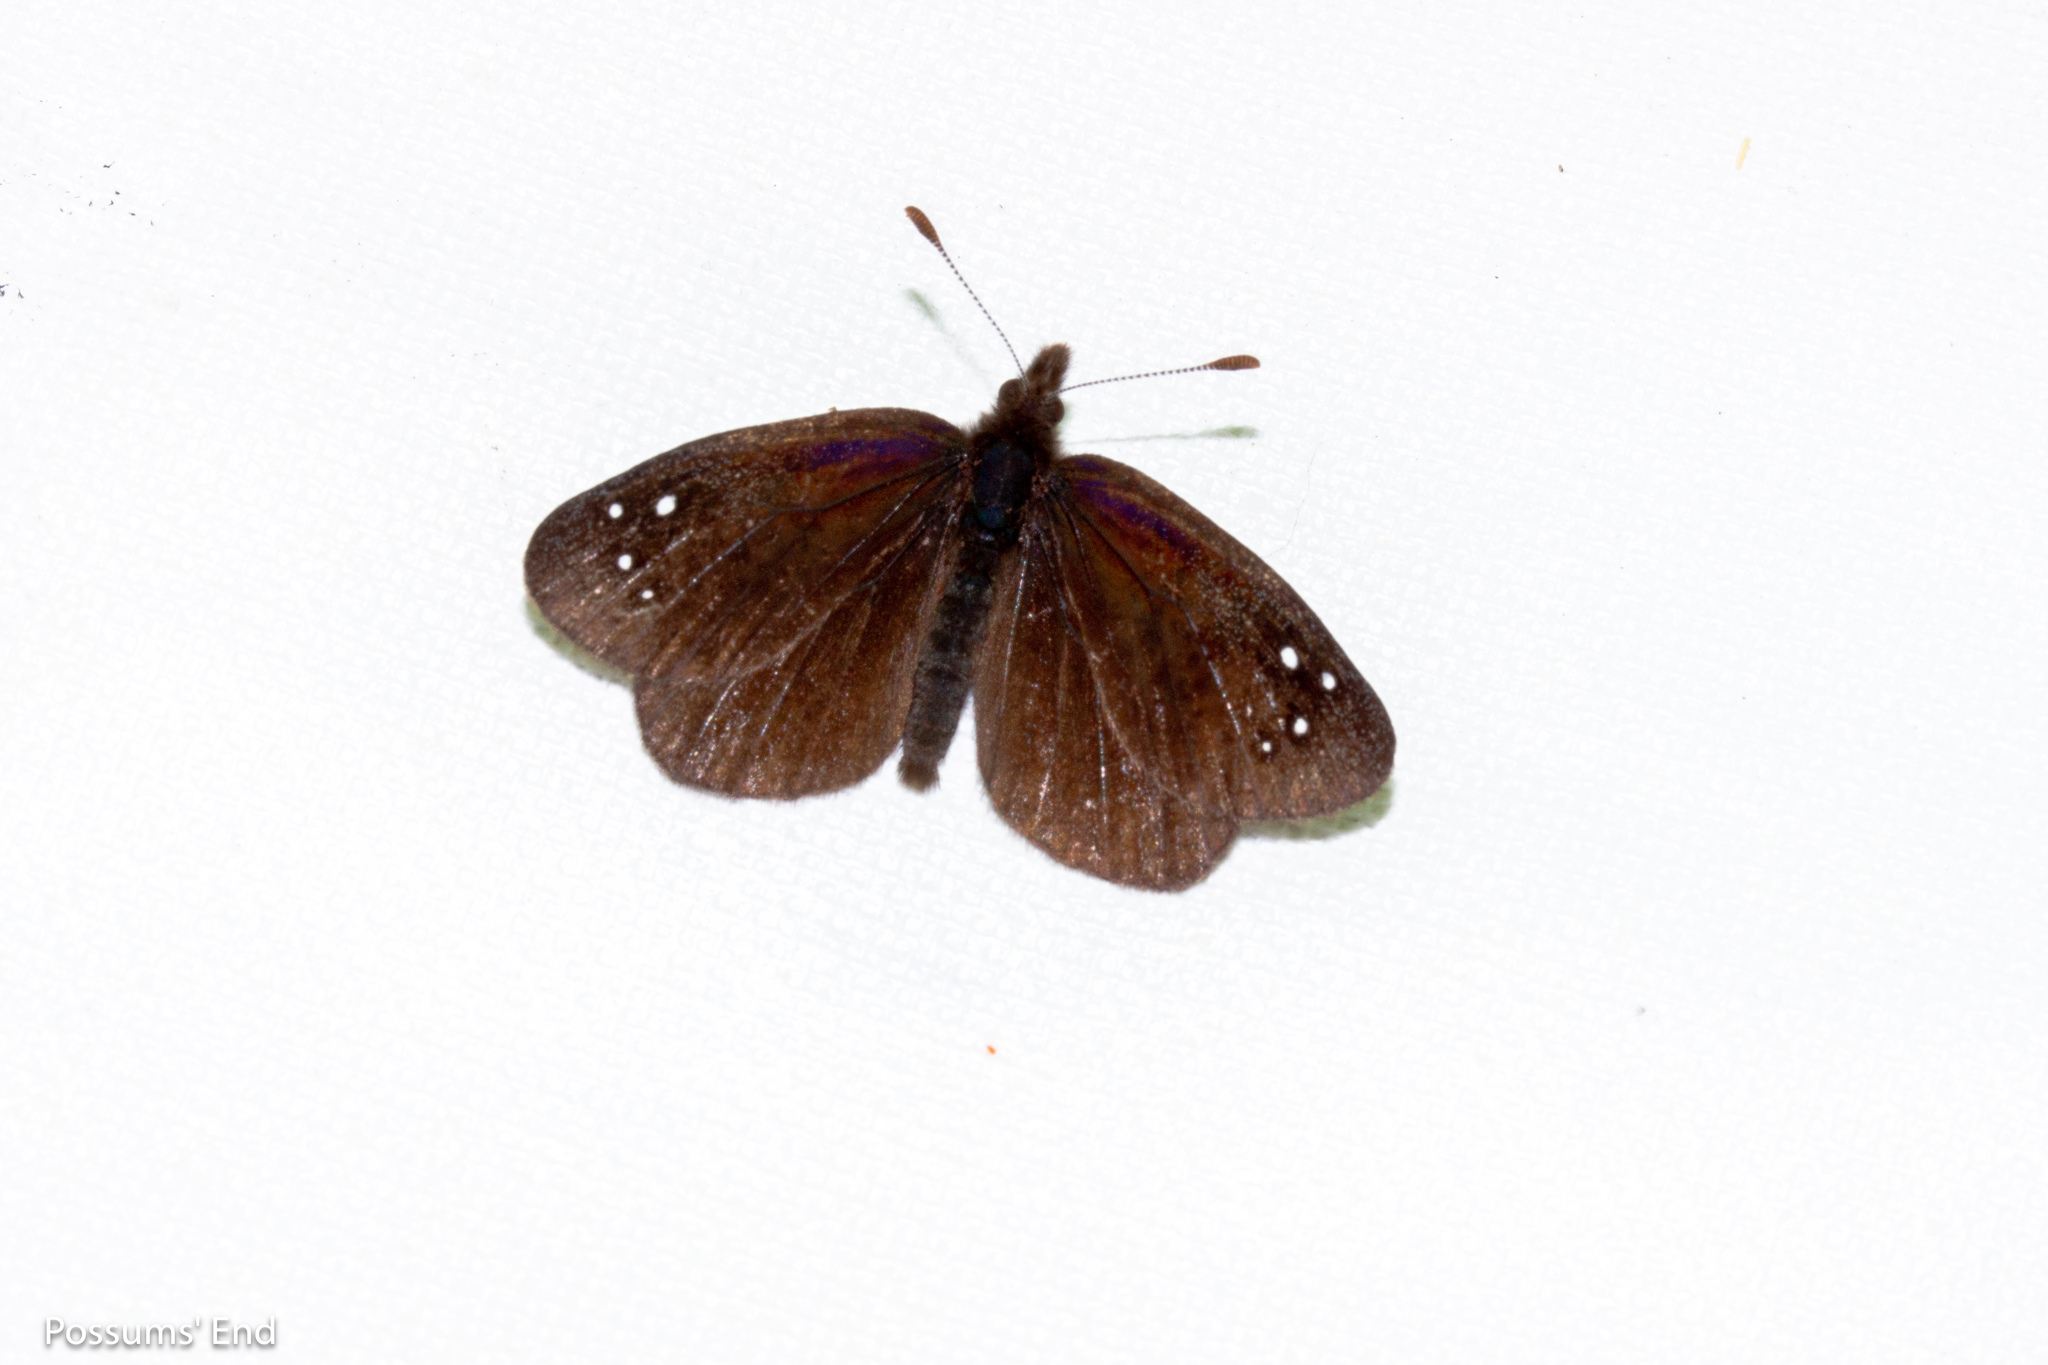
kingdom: Animalia
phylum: Arthropoda
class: Insecta
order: Lepidoptera
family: Nymphalidae
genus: Erebia
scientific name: Erebia Percnodaimon merula
